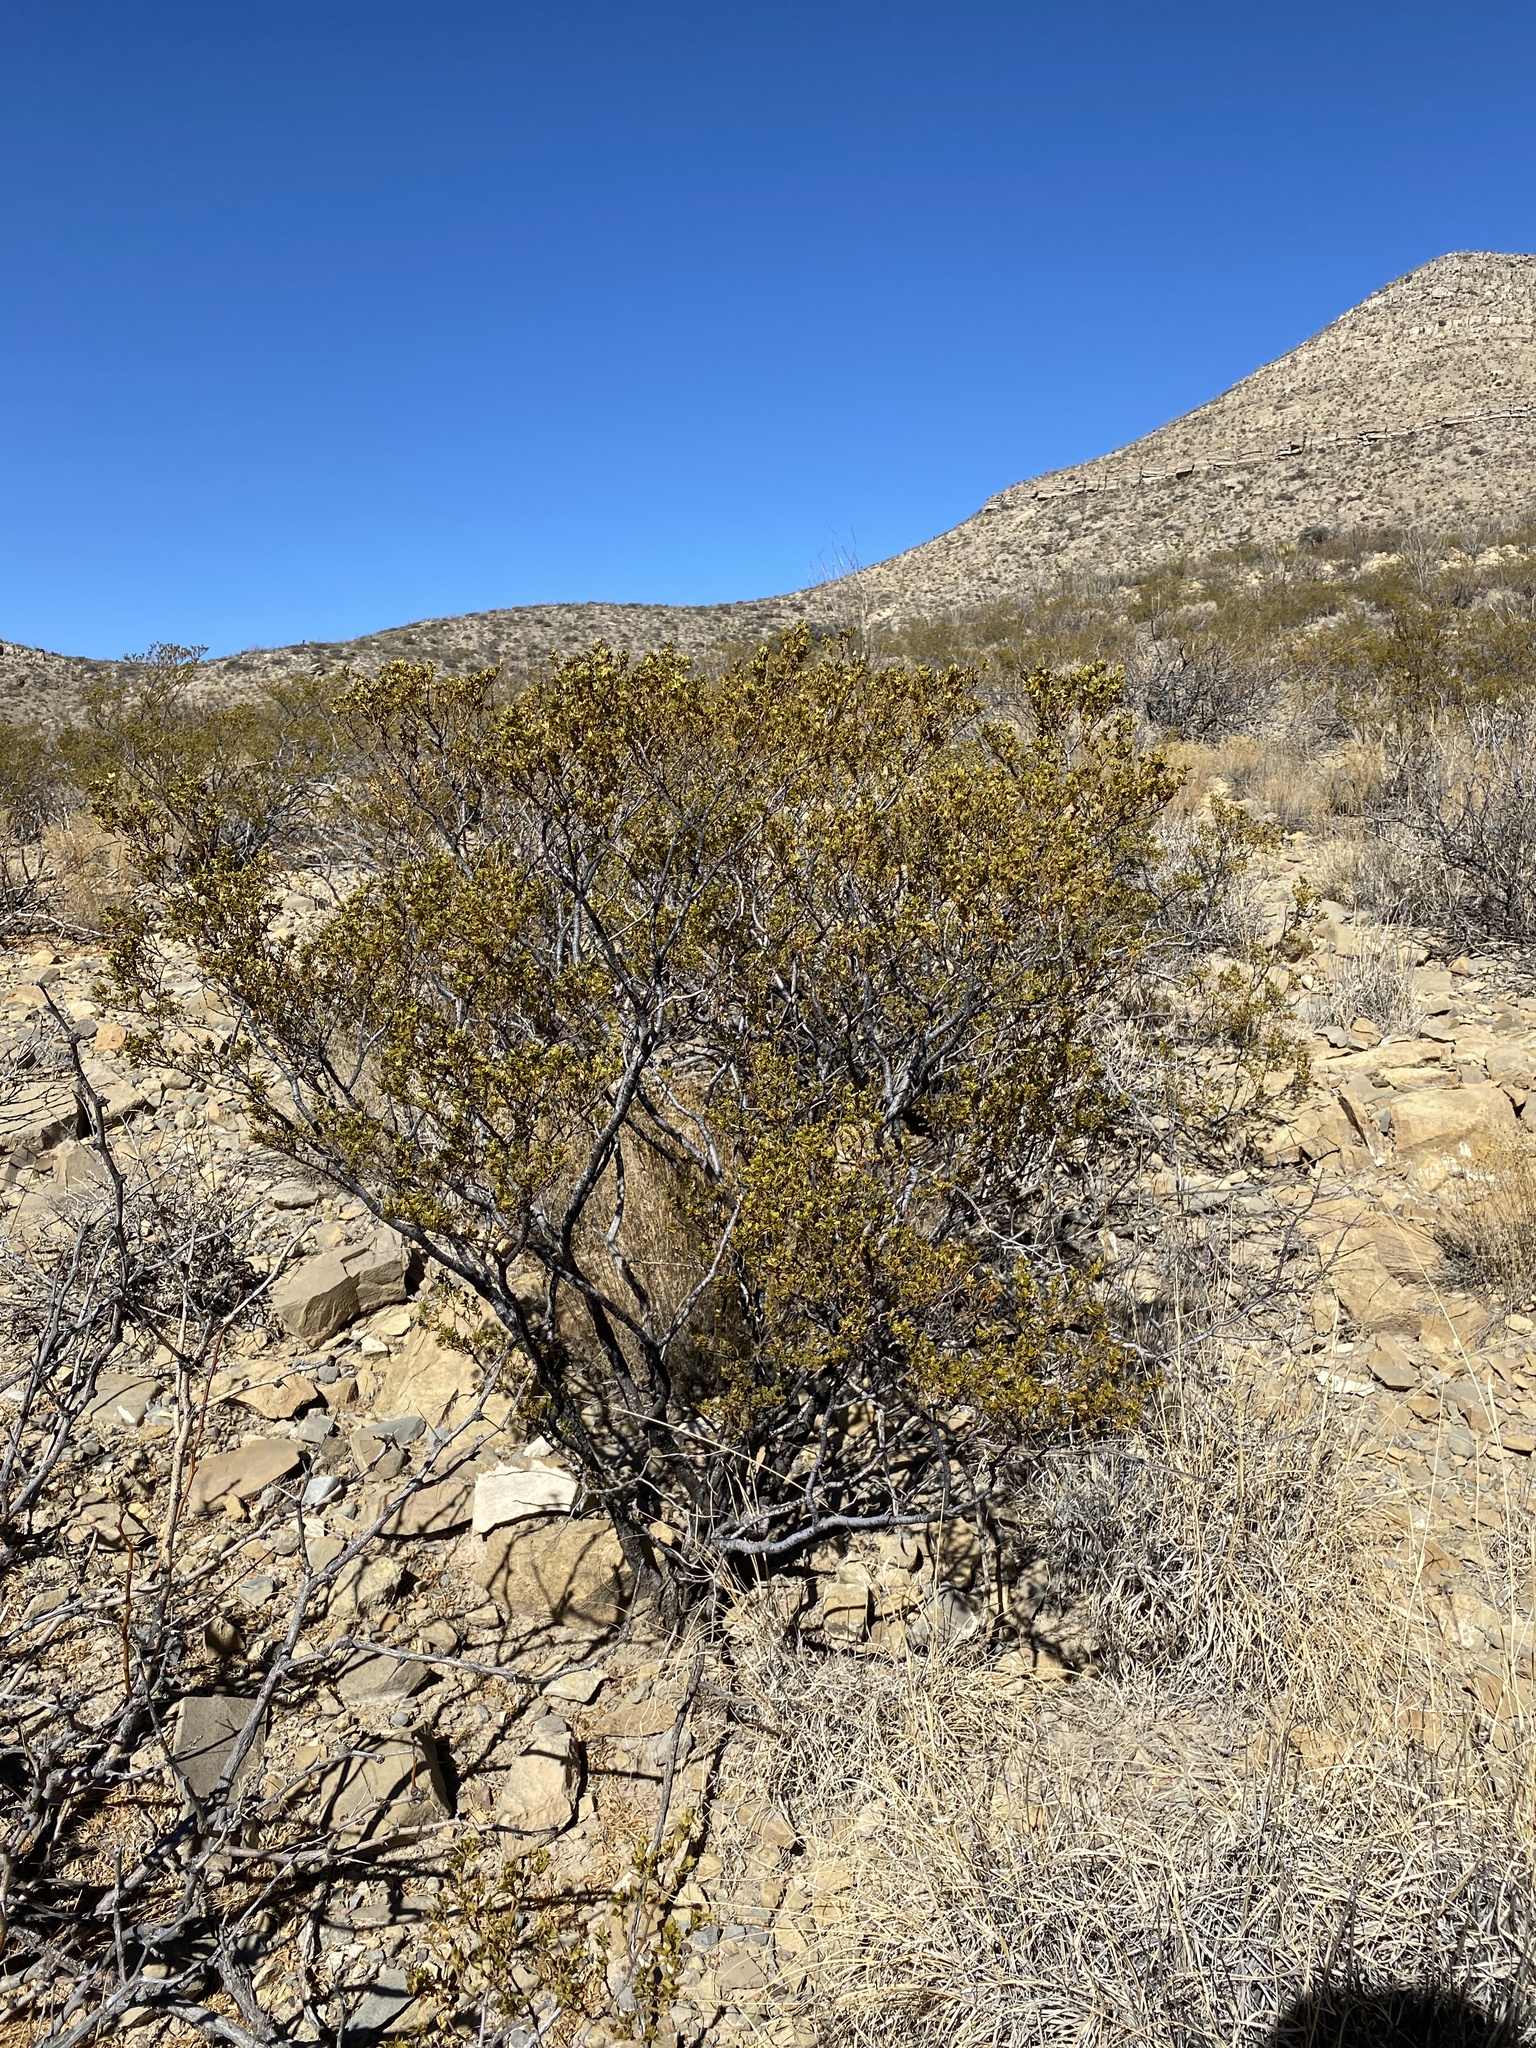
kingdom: Plantae
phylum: Tracheophyta
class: Magnoliopsida
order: Zygophyllales
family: Zygophyllaceae
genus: Larrea
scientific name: Larrea tridentata
